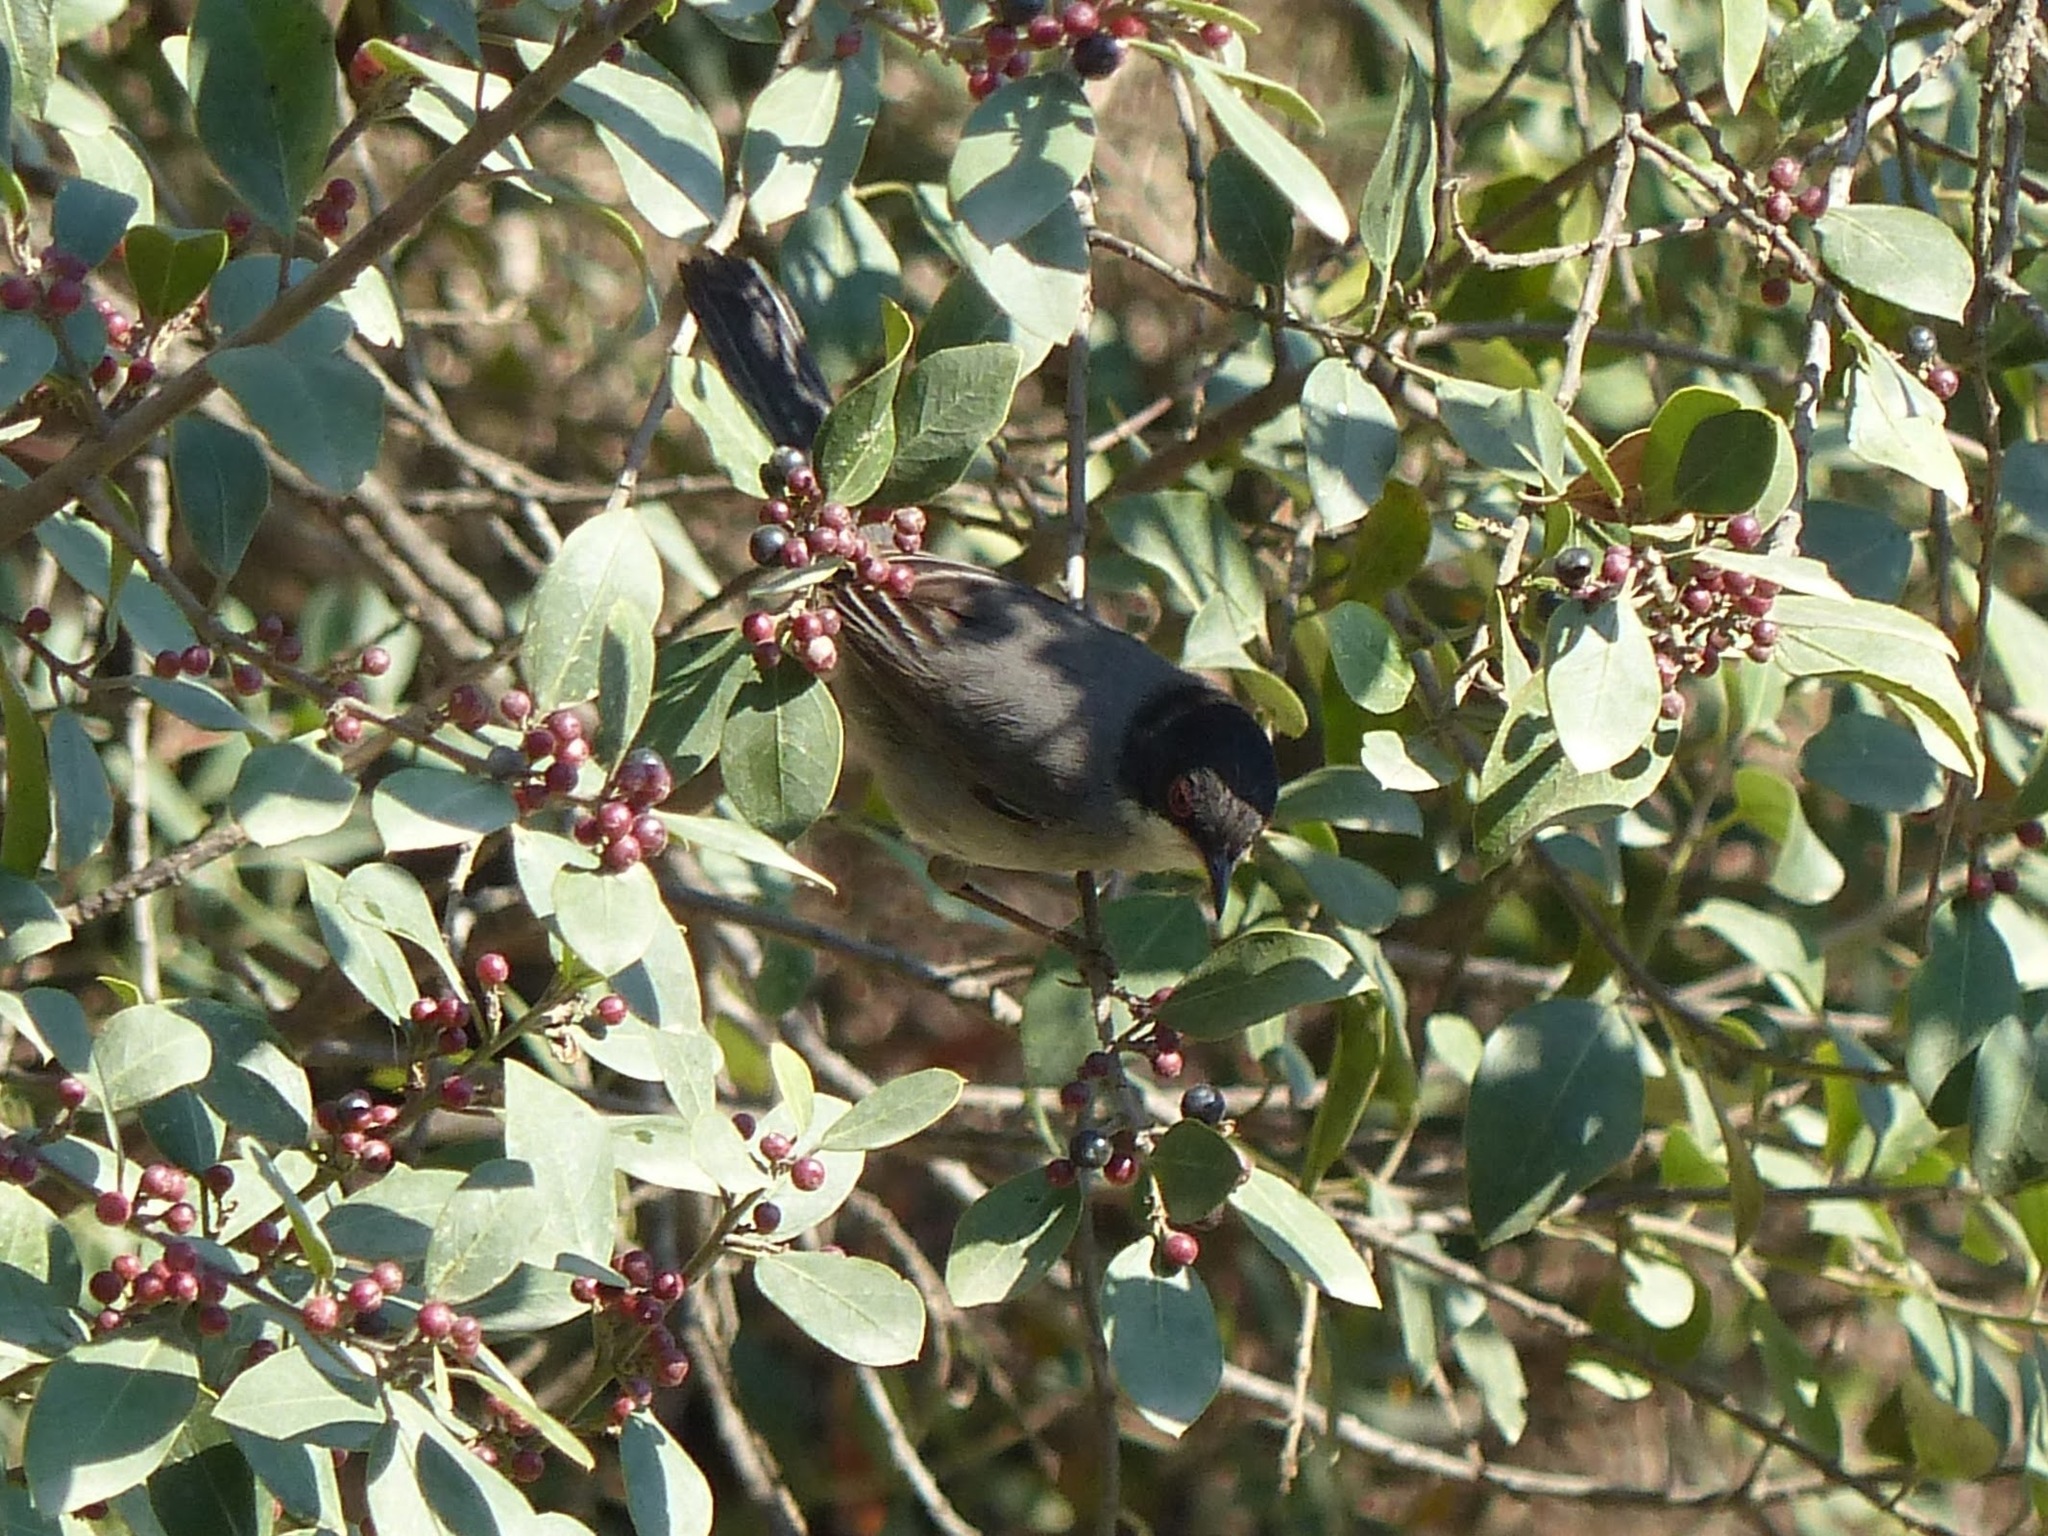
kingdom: Animalia
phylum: Chordata
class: Aves
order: Passeriformes
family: Sylviidae
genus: Curruca
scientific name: Curruca melanocephala
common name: Sardinian warbler
